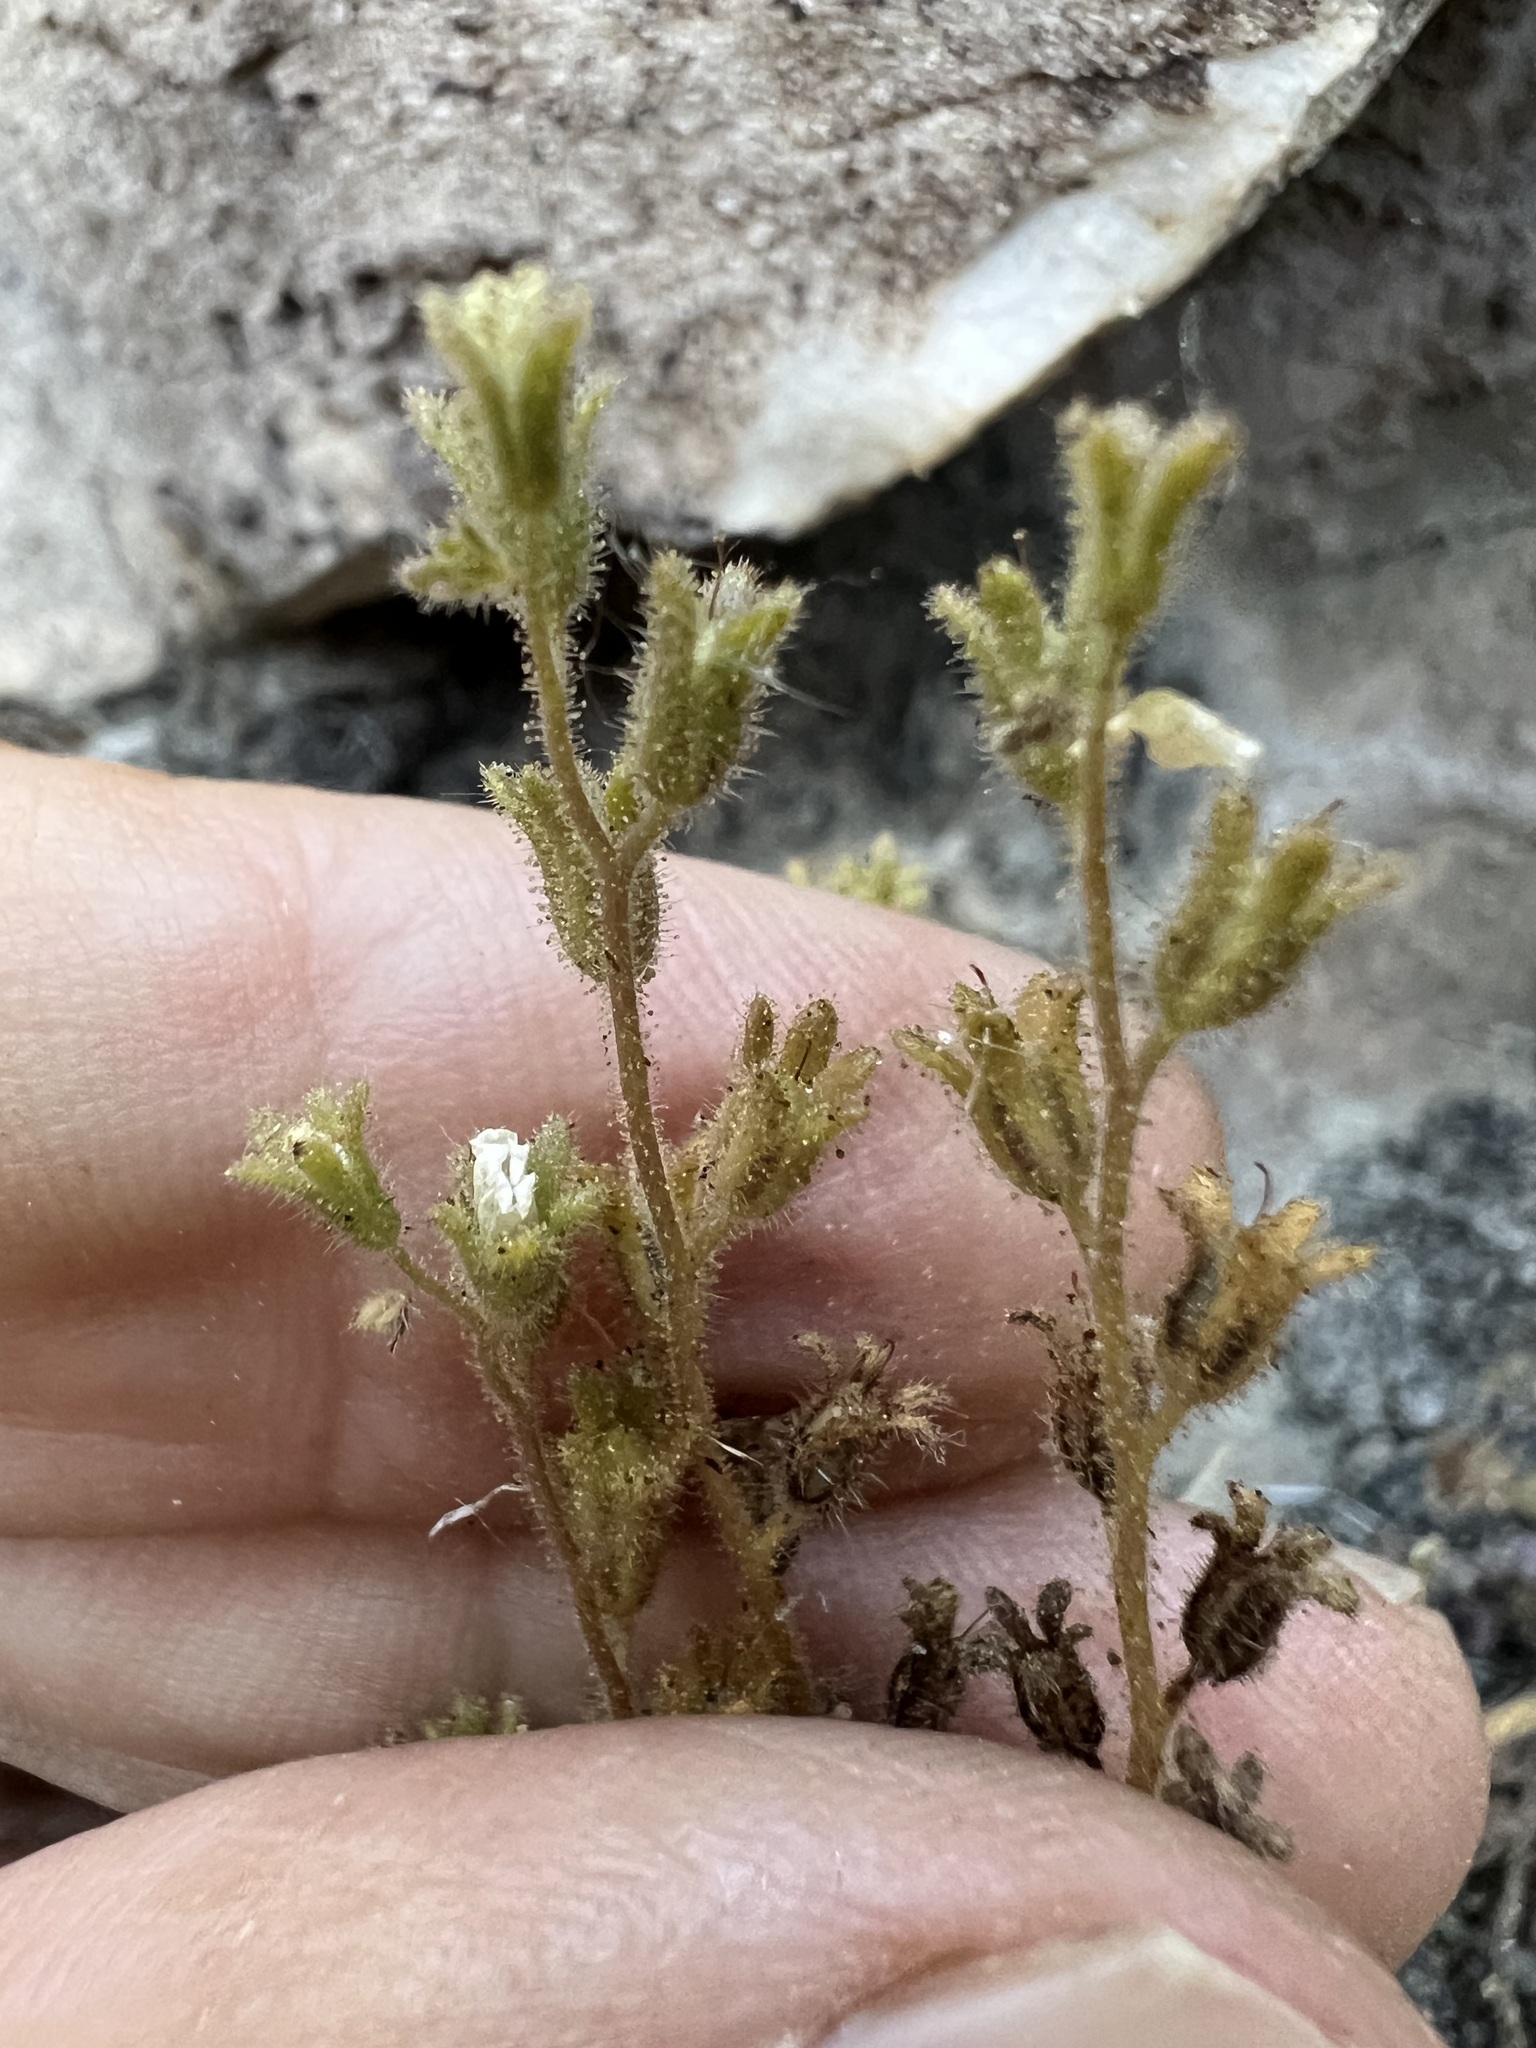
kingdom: Plantae
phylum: Tracheophyta
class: Magnoliopsida
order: Boraginales
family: Hydrophyllaceae
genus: Phacelia
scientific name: Phacelia rotundifolia
